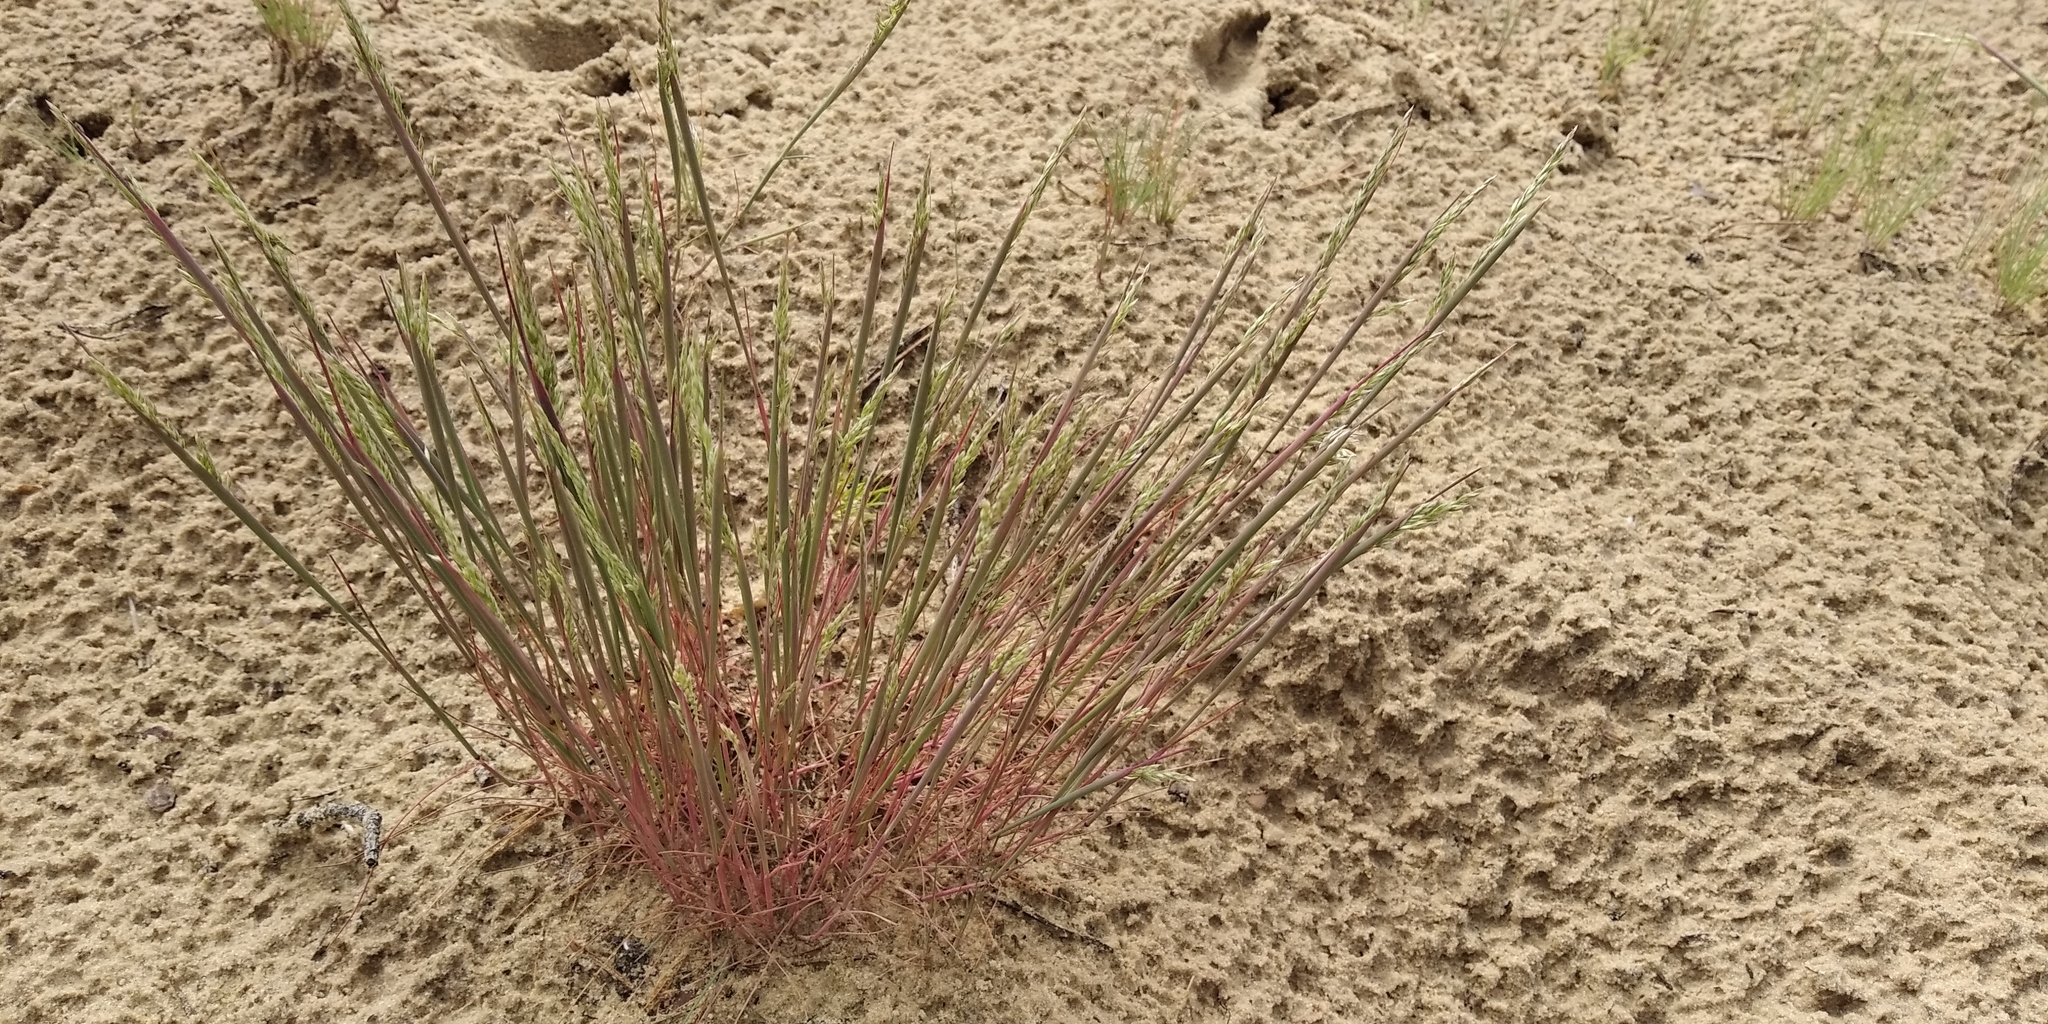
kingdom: Plantae
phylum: Tracheophyta
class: Liliopsida
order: Poales
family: Poaceae
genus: Corynephorus
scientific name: Corynephorus canescens
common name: Grey hair-grass
